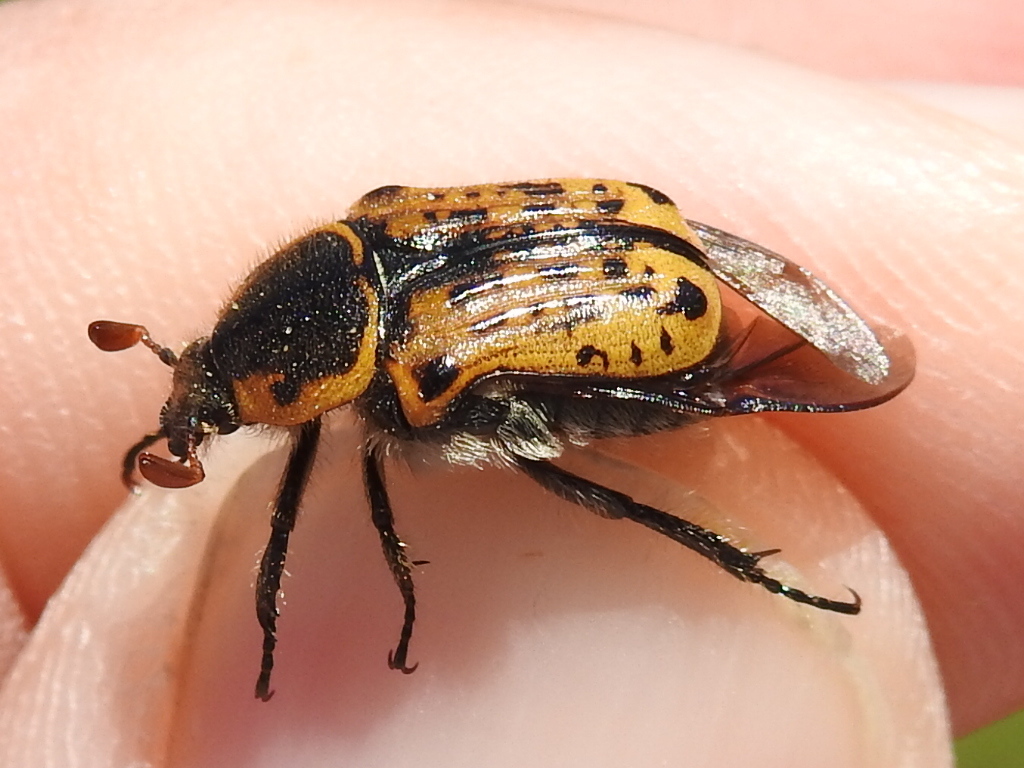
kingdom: Animalia
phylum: Arthropoda
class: Insecta
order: Coleoptera
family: Scarabaeidae
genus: Euphoria
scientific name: Euphoria kernii
